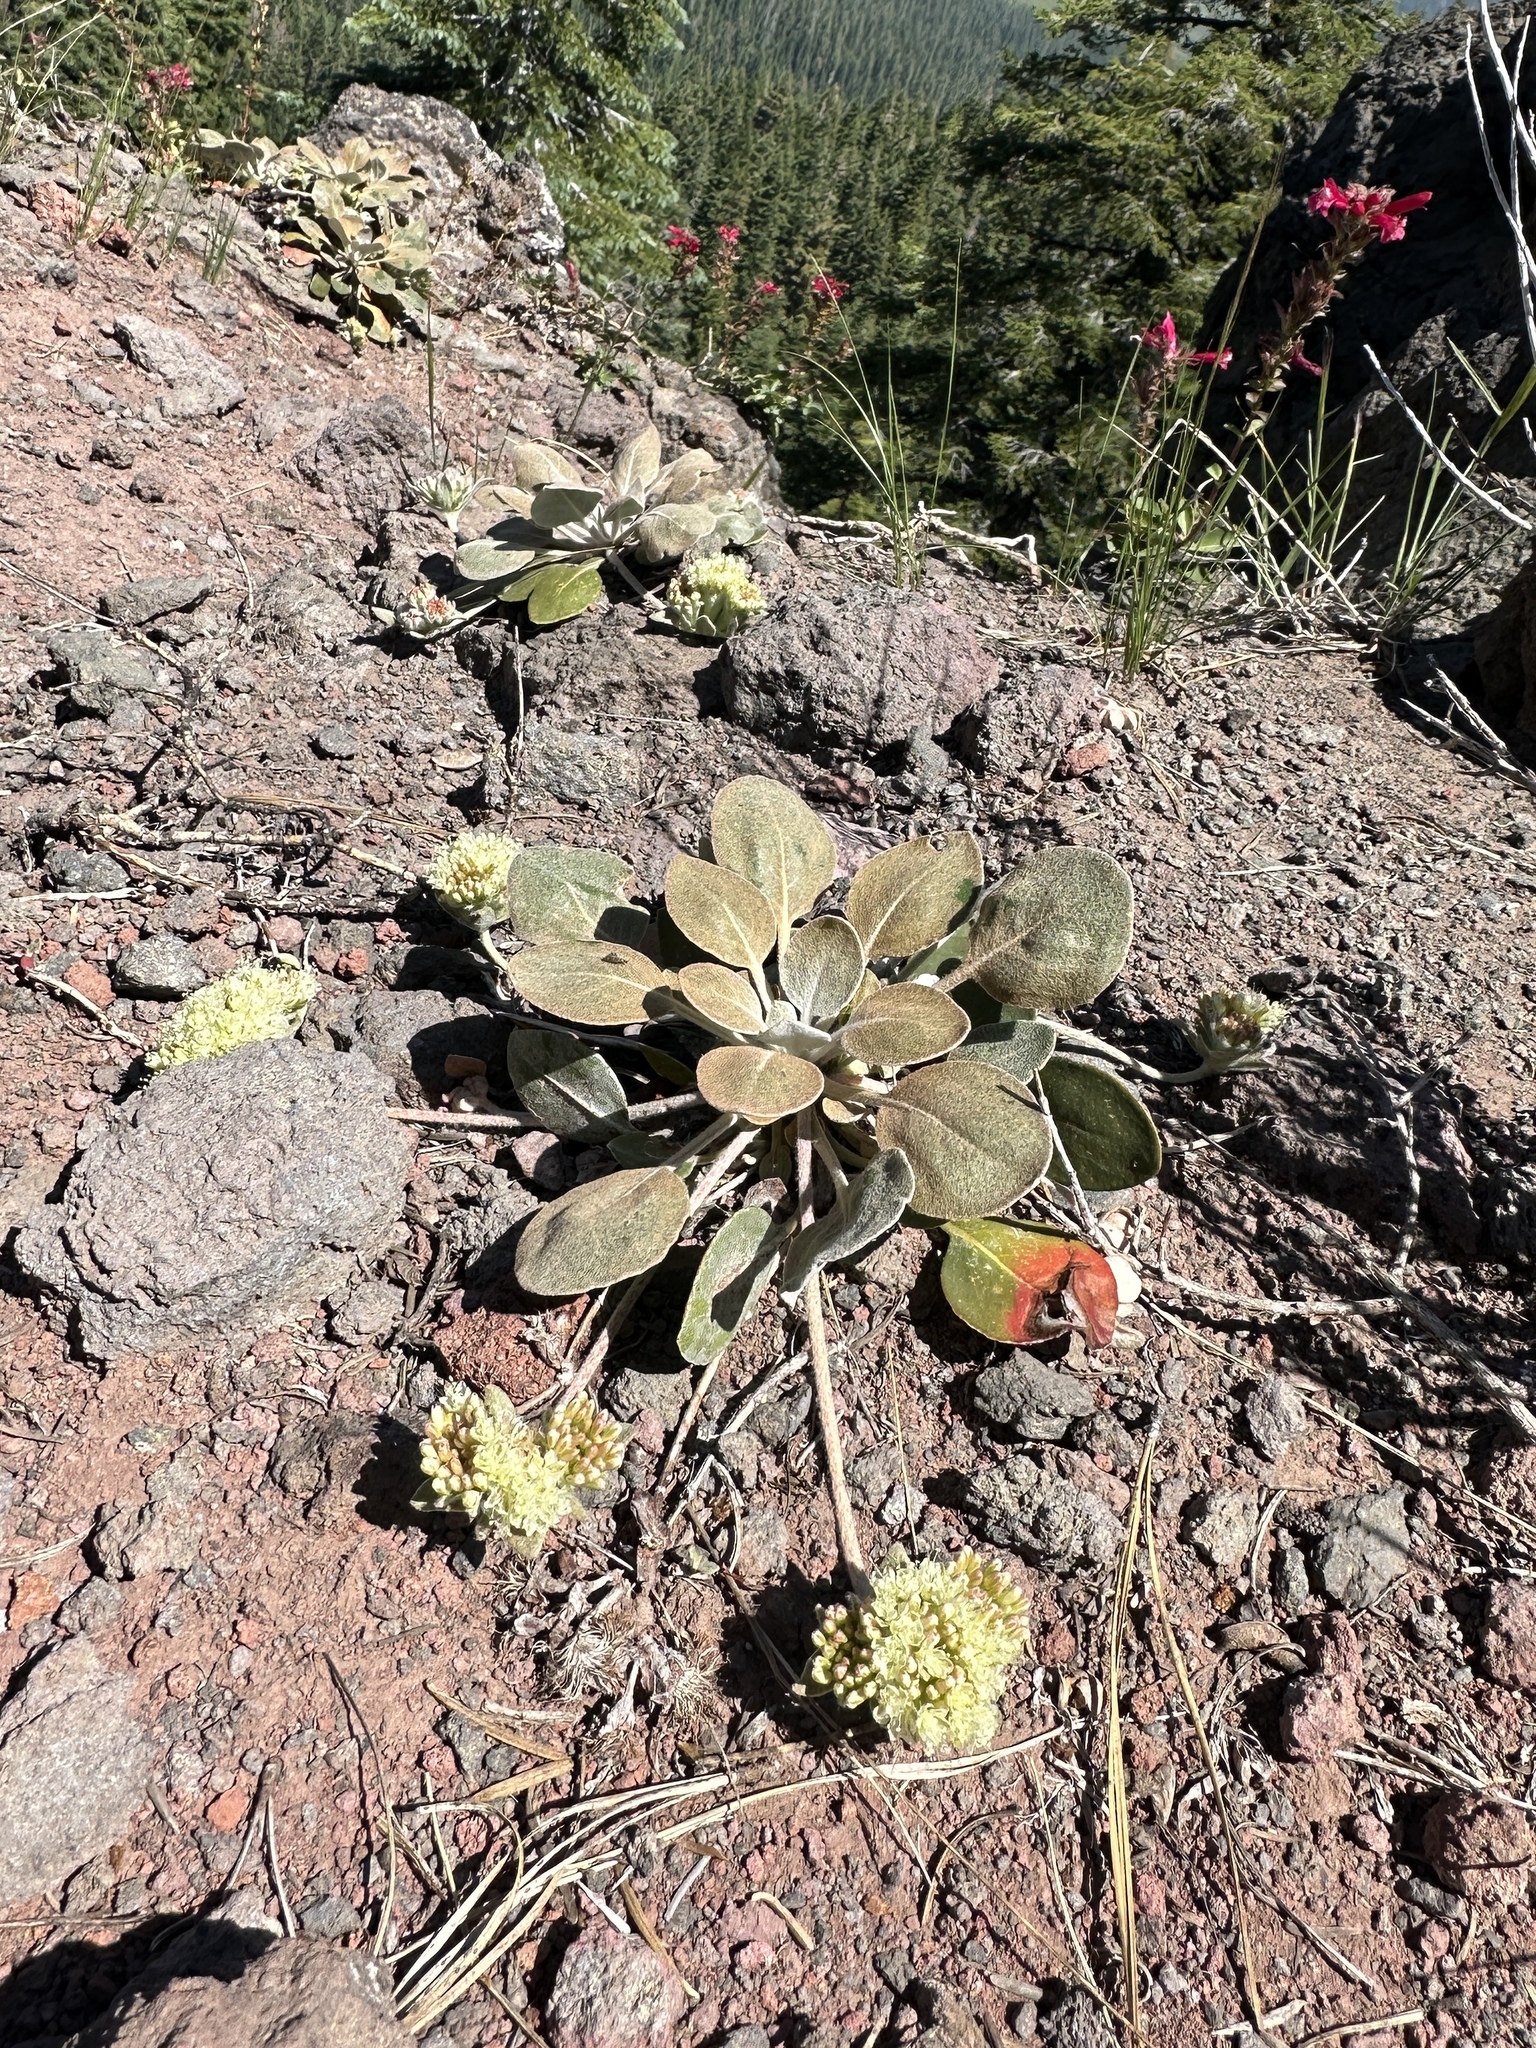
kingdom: Plantae
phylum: Tracheophyta
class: Magnoliopsida
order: Caryophyllales
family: Polygonaceae
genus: Eriogonum
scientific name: Eriogonum lobbii
